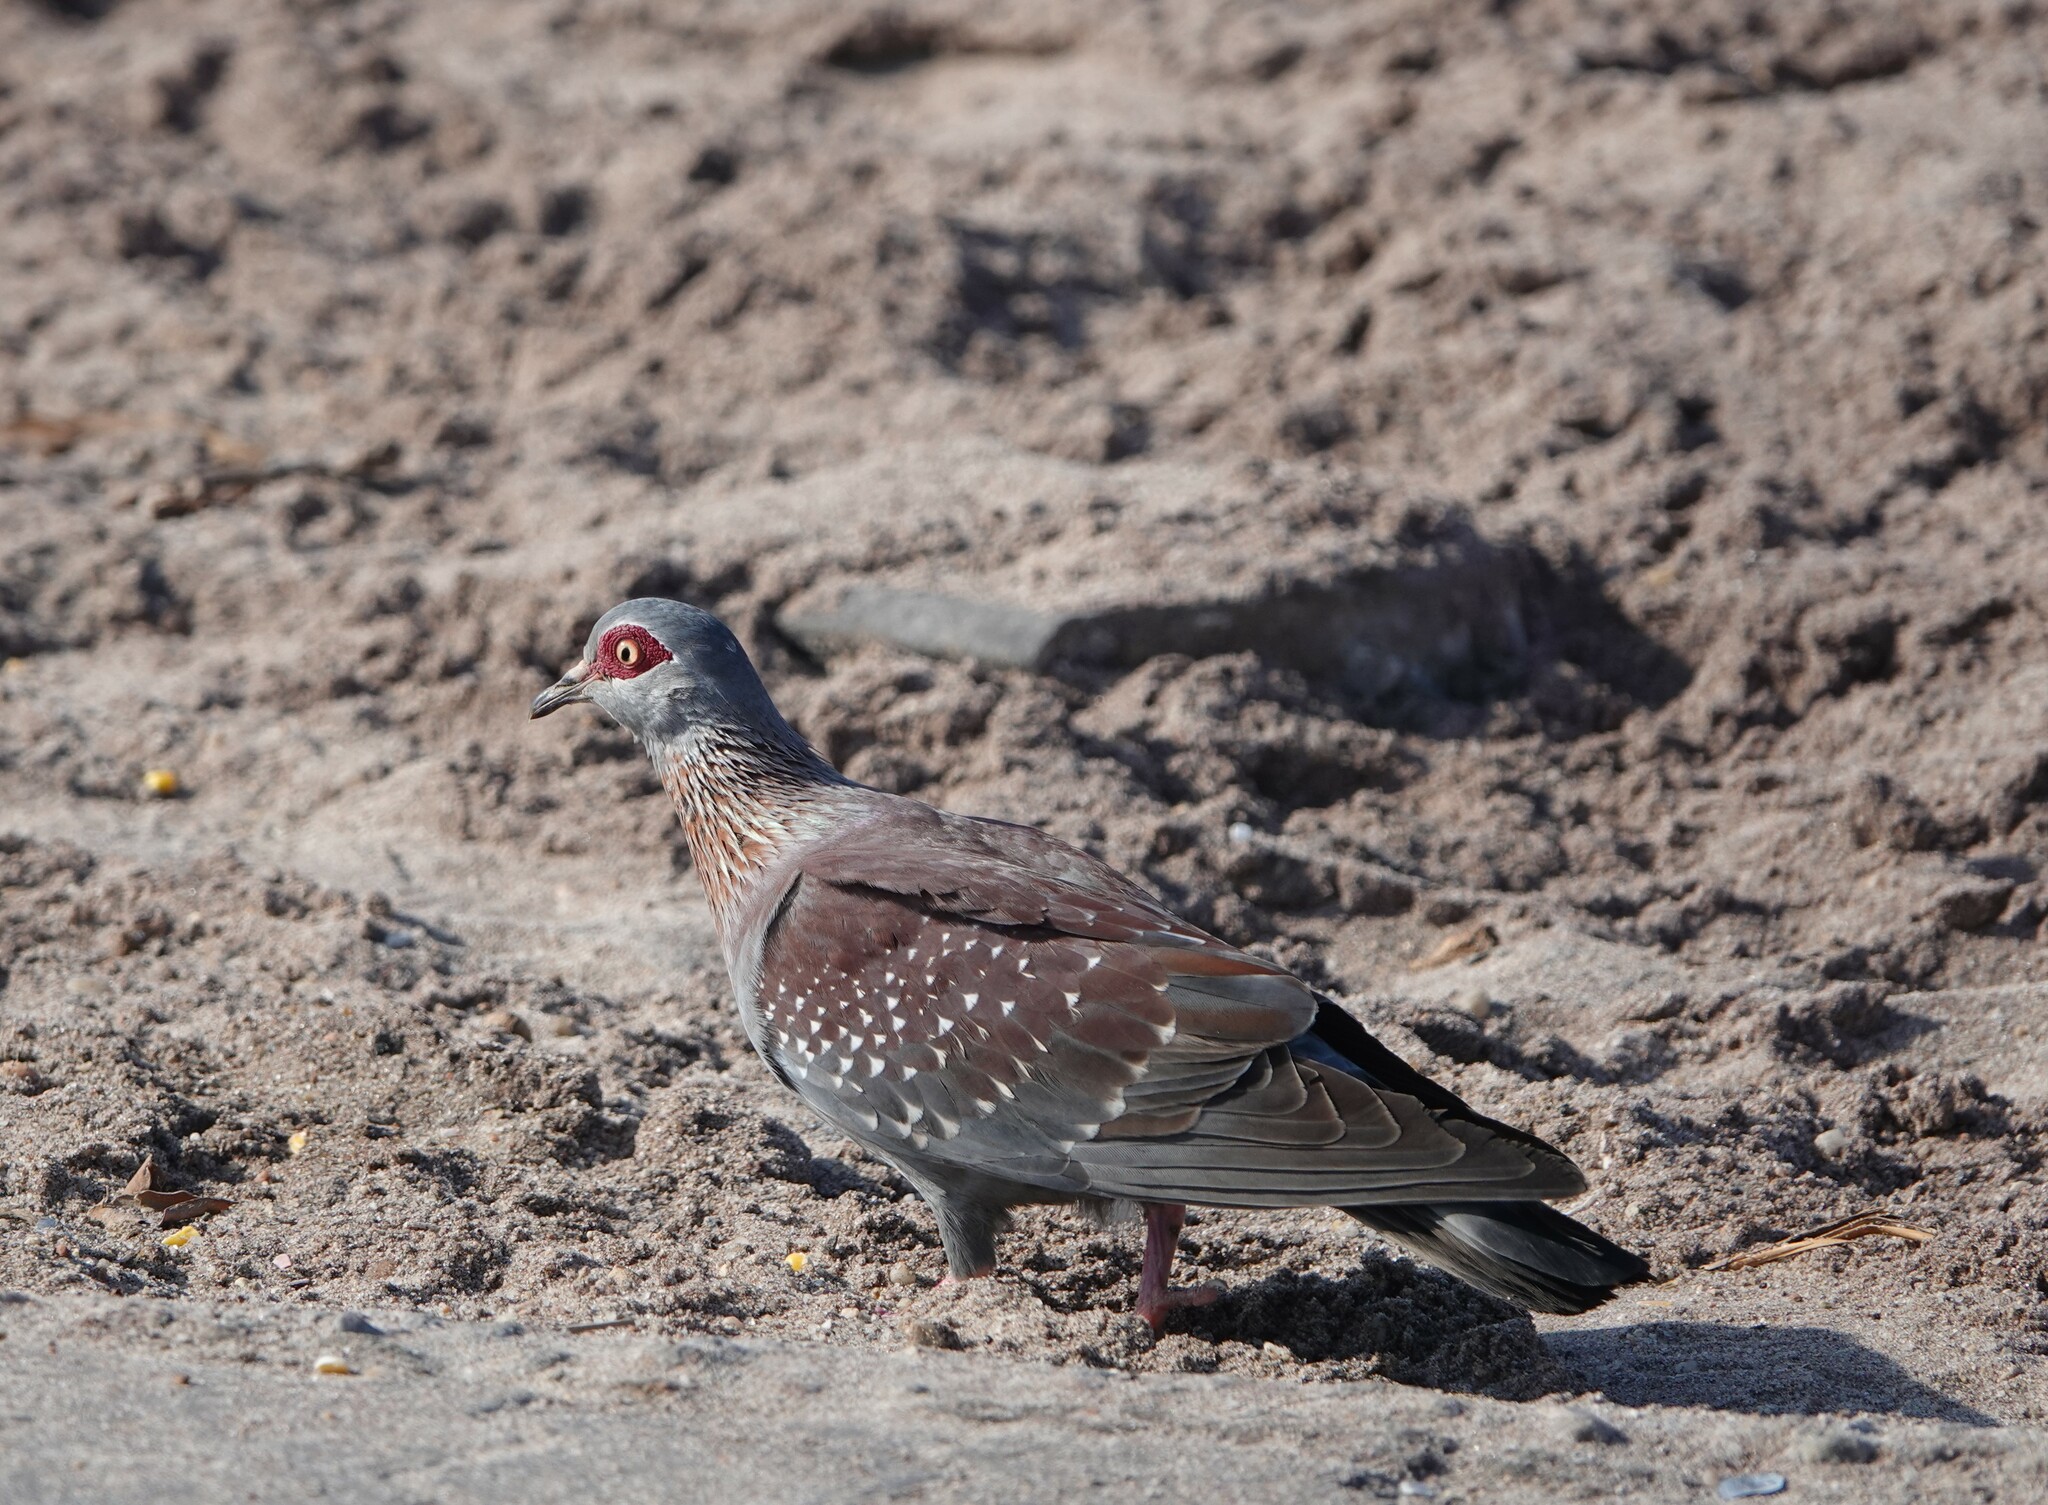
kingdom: Animalia
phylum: Chordata
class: Aves
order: Columbiformes
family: Columbidae
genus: Columba
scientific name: Columba guinea
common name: Speckled pigeon
